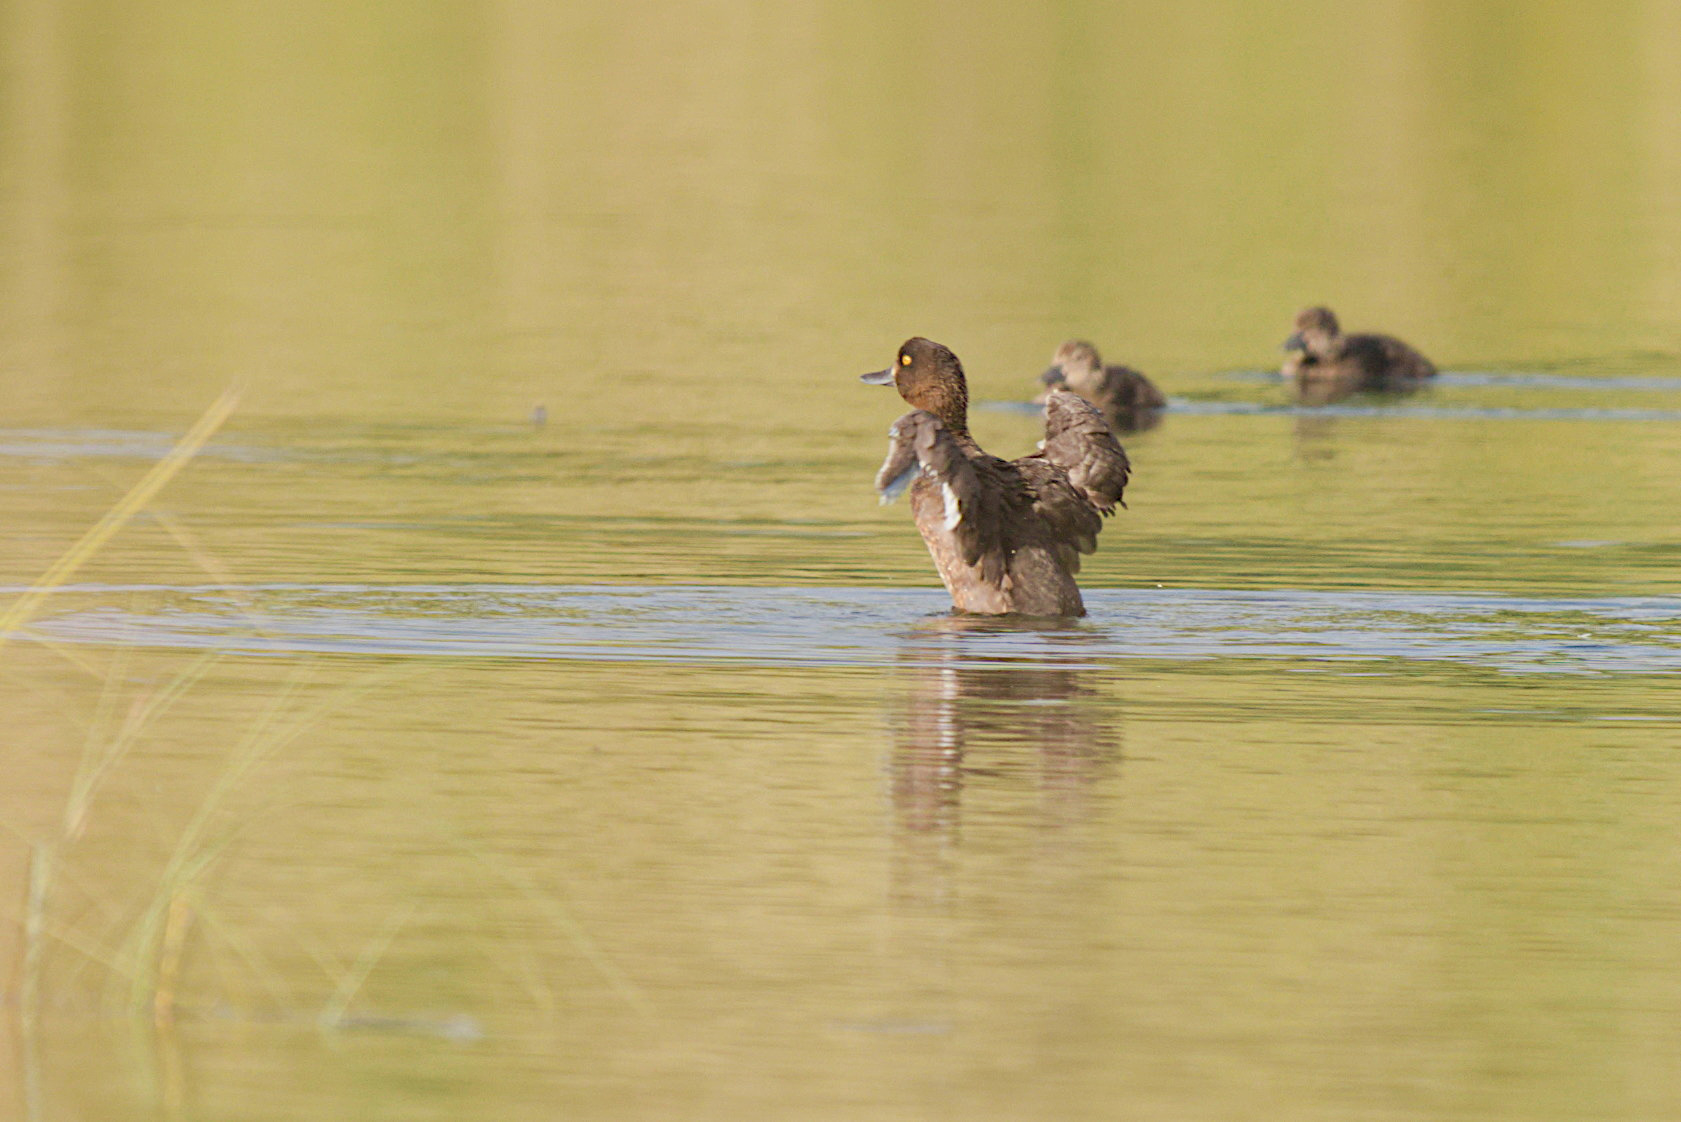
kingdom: Animalia
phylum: Chordata
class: Aves
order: Anseriformes
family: Anatidae
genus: Aythya
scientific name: Aythya fuligula
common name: Tufted duck
